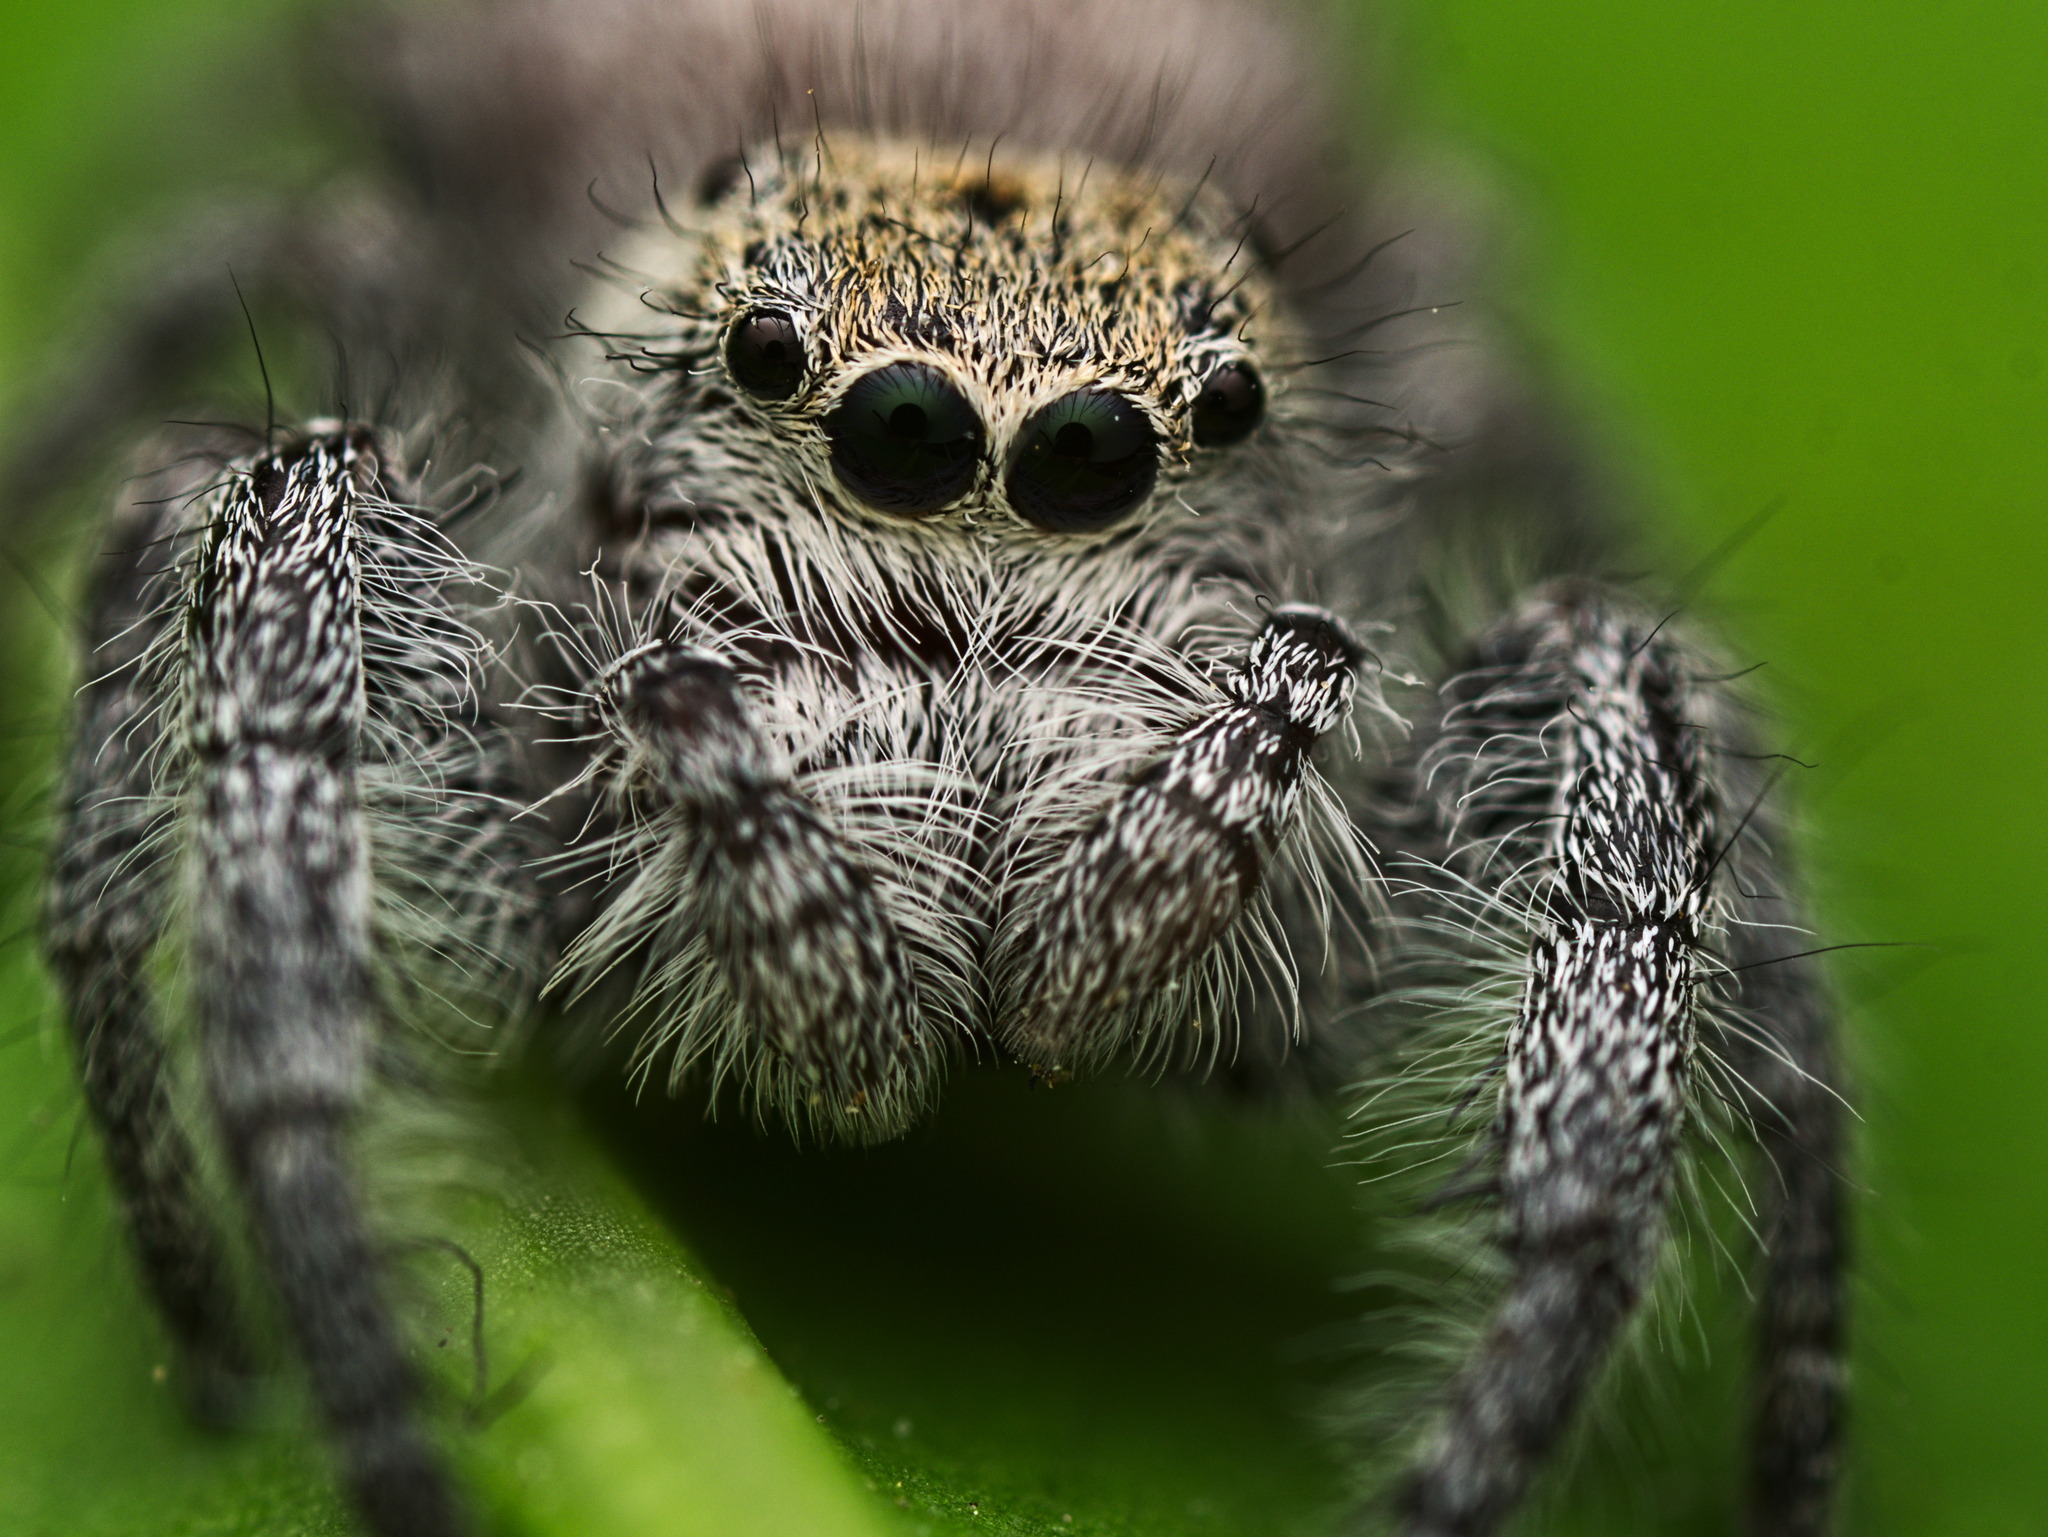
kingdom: Animalia
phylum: Arthropoda
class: Arachnida
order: Araneae
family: Salticidae
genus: Paraphidippus
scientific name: Paraphidippus fartilis
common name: Jumping spiders
